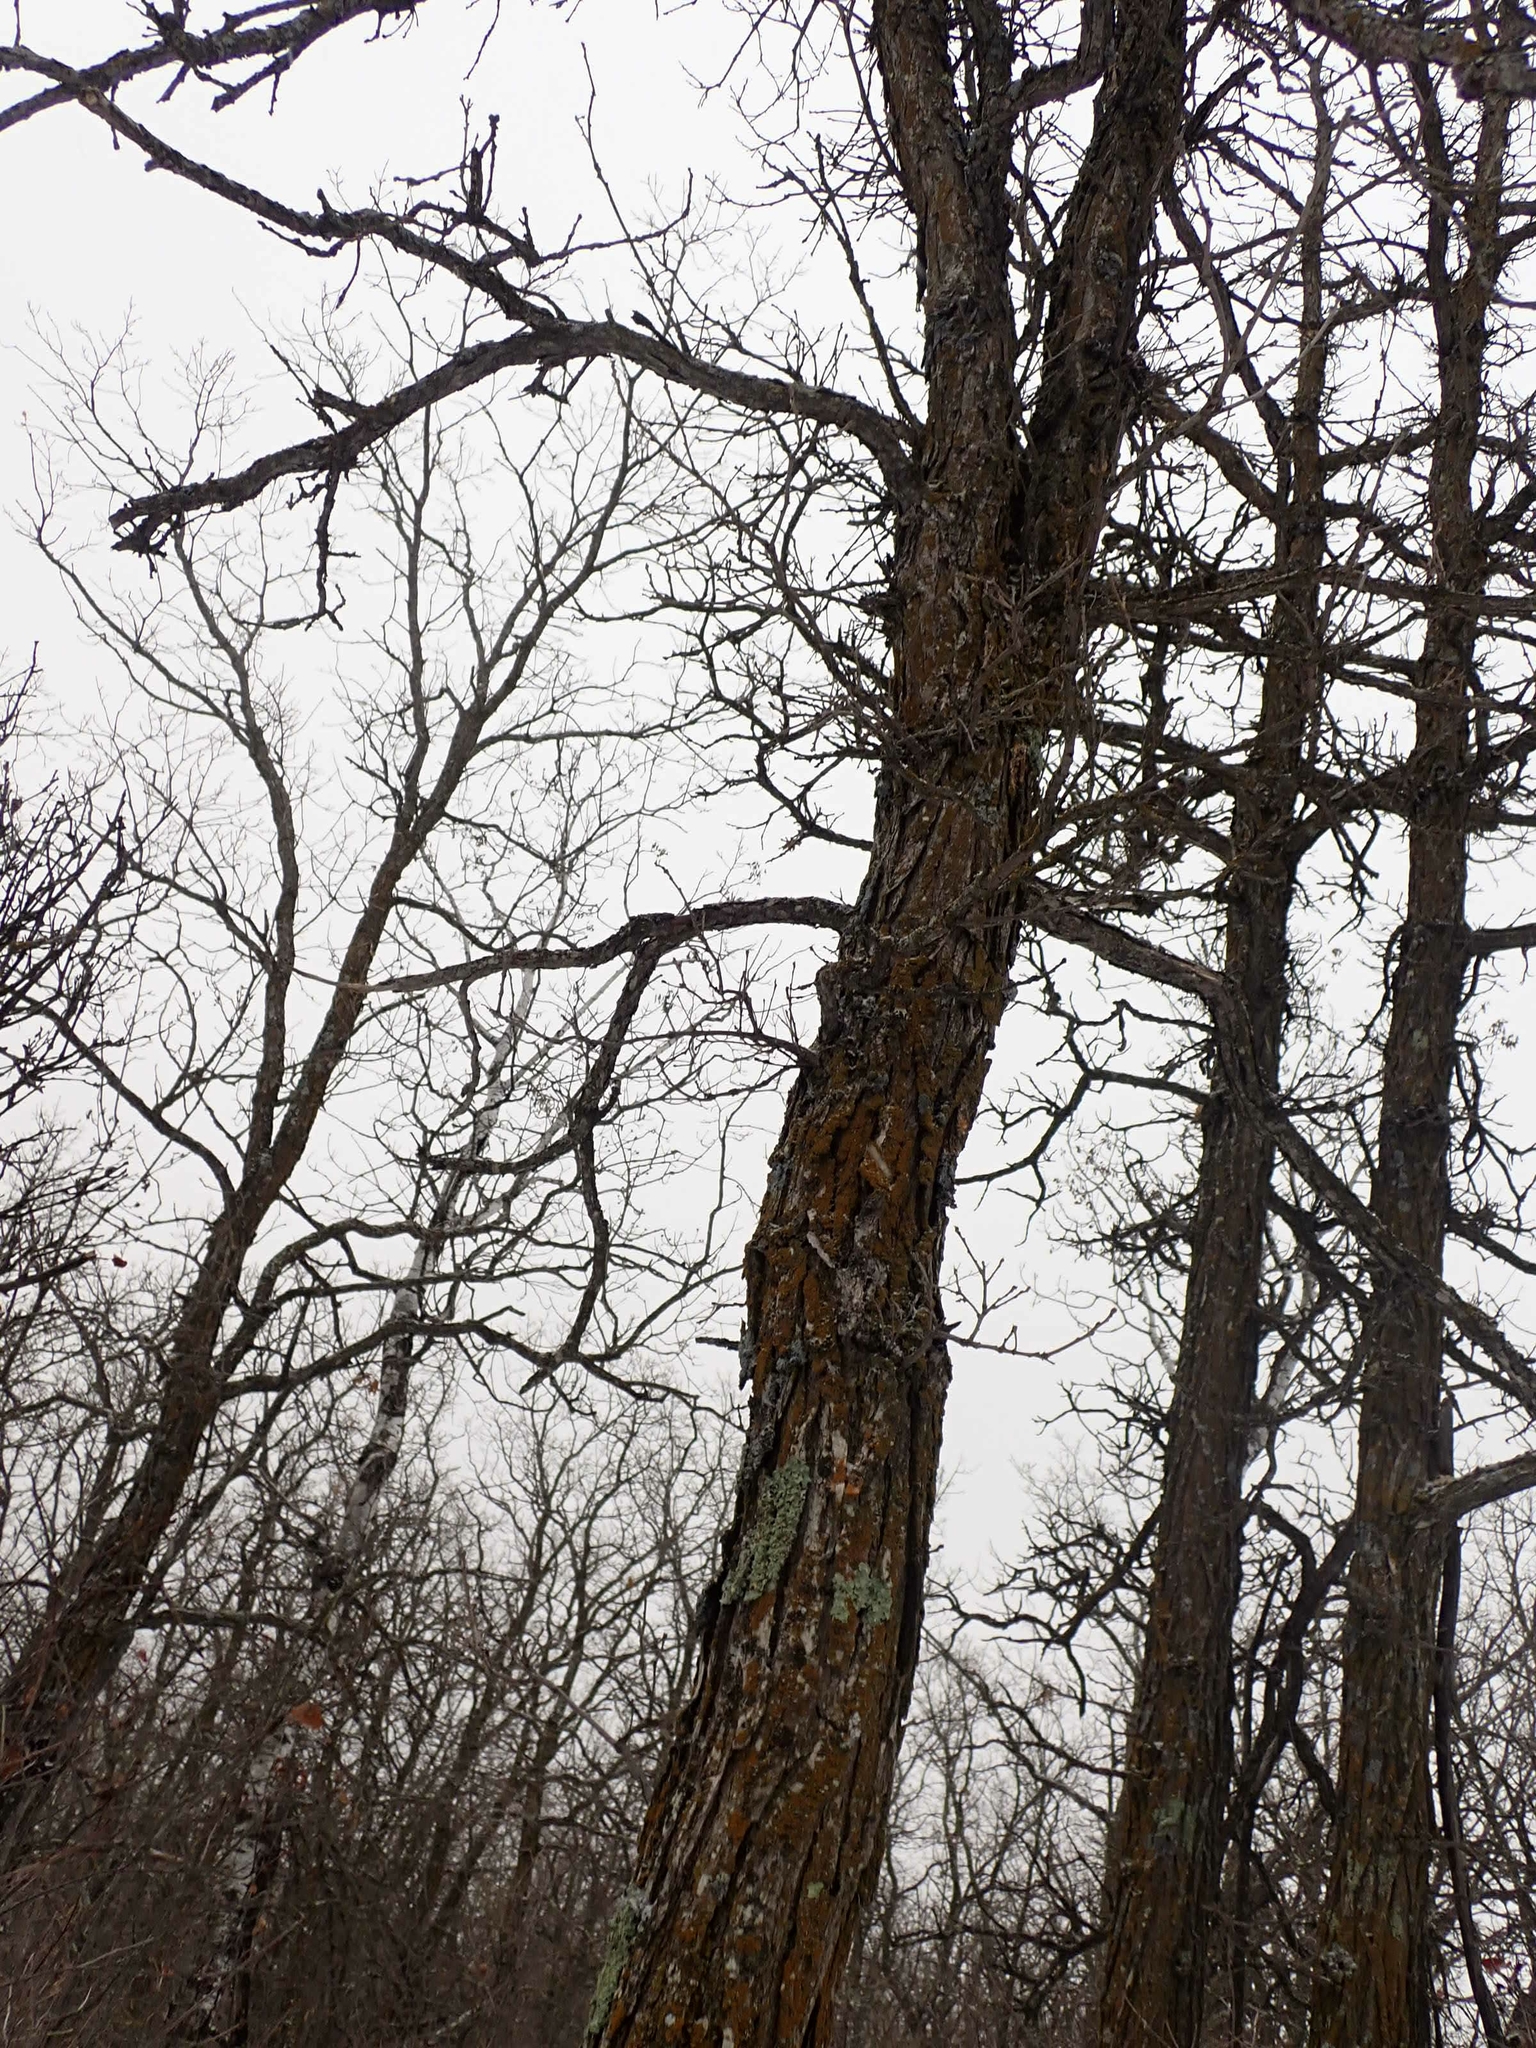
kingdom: Plantae
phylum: Tracheophyta
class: Magnoliopsida
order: Fagales
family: Fagaceae
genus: Quercus
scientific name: Quercus macrocarpa
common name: Bur oak
